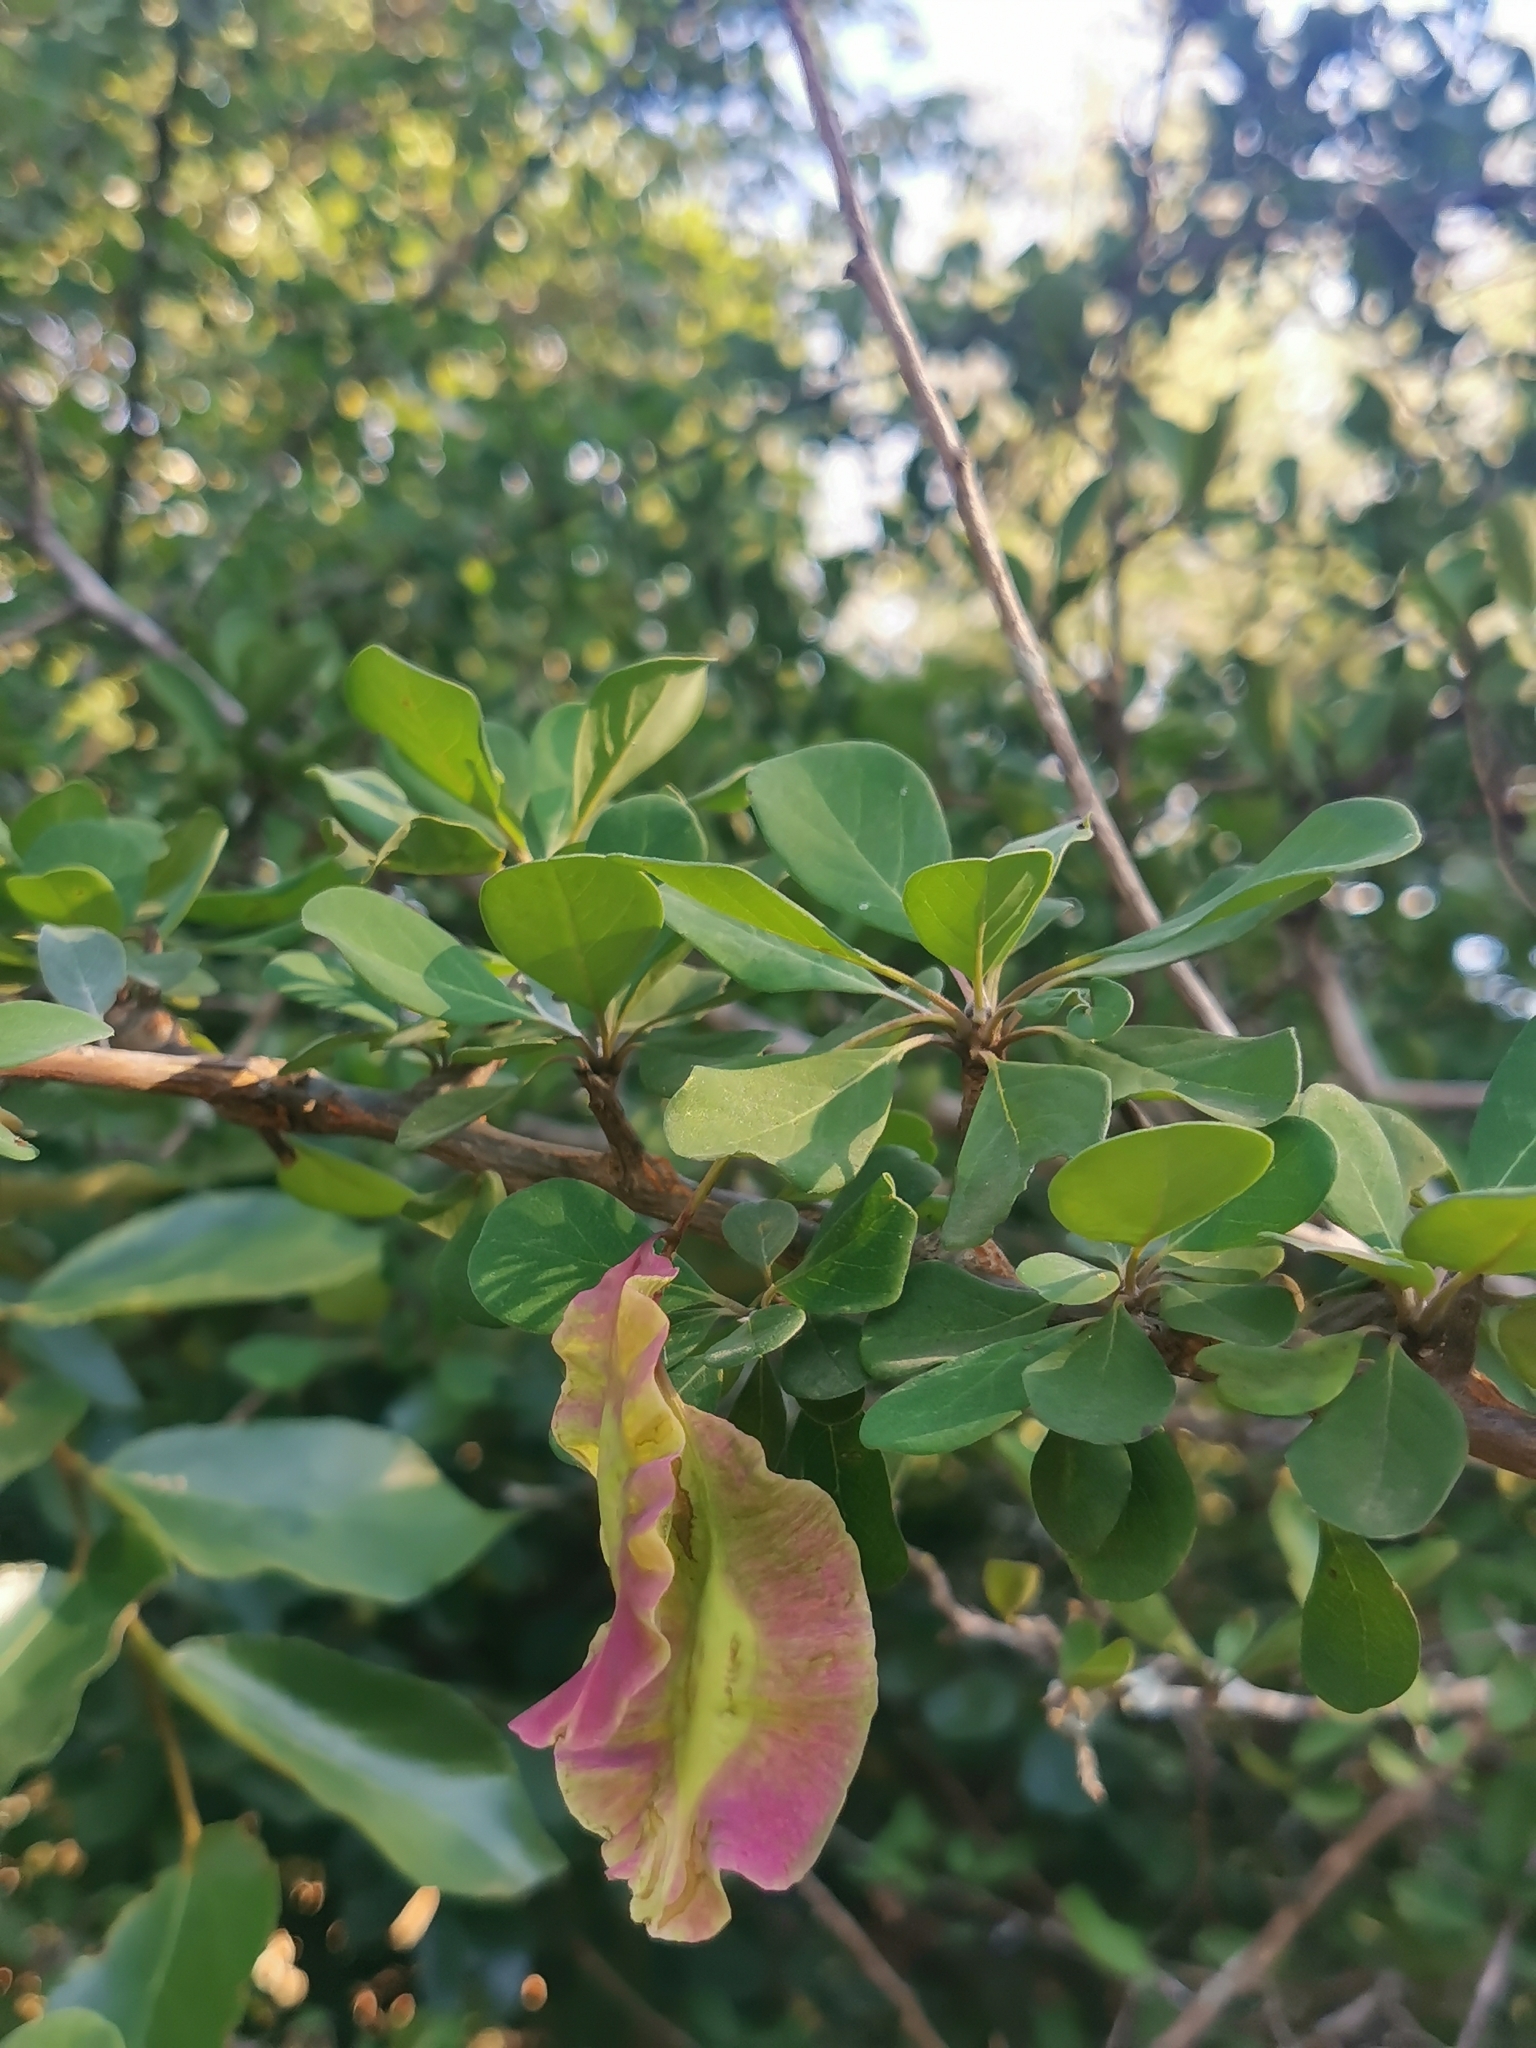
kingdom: Plantae
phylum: Tracheophyta
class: Magnoliopsida
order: Myrtales
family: Combretaceae
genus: Terminalia
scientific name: Terminalia prunioides
